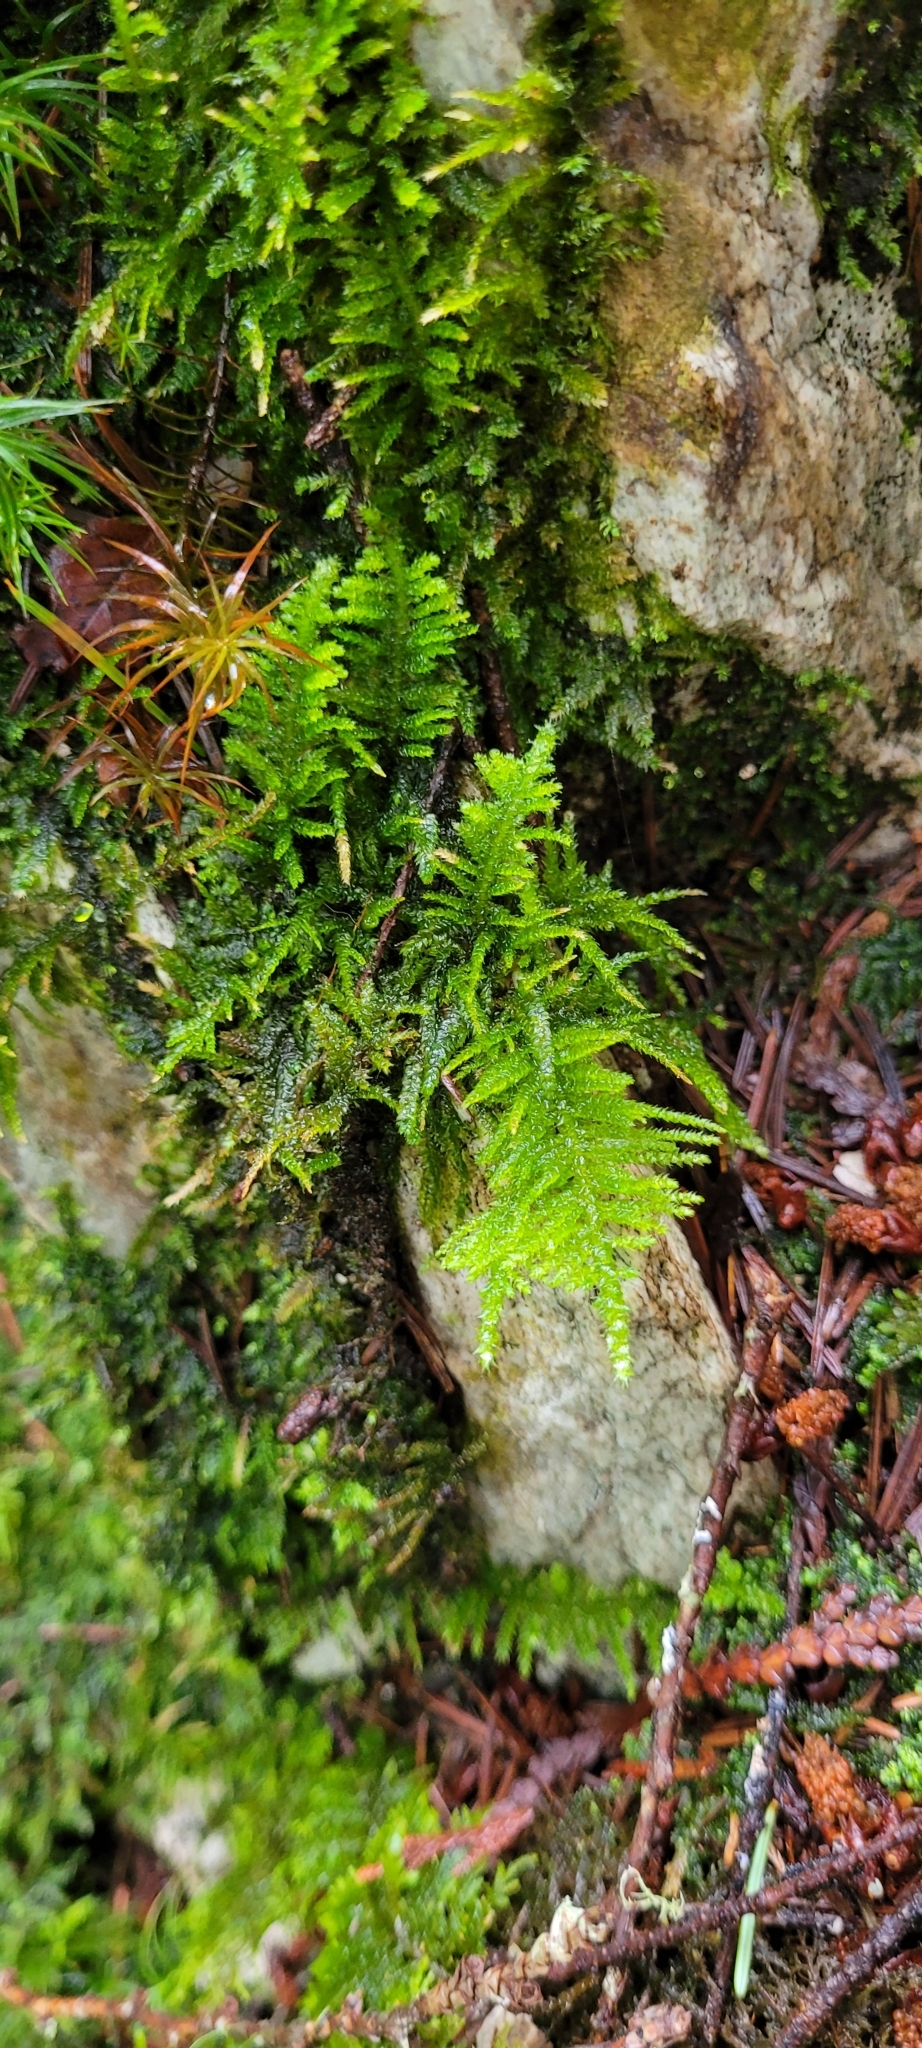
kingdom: Plantae
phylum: Bryophyta
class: Bryopsida
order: Hypnales
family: Brachytheciaceae
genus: Kindbergia
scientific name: Kindbergia oregana
